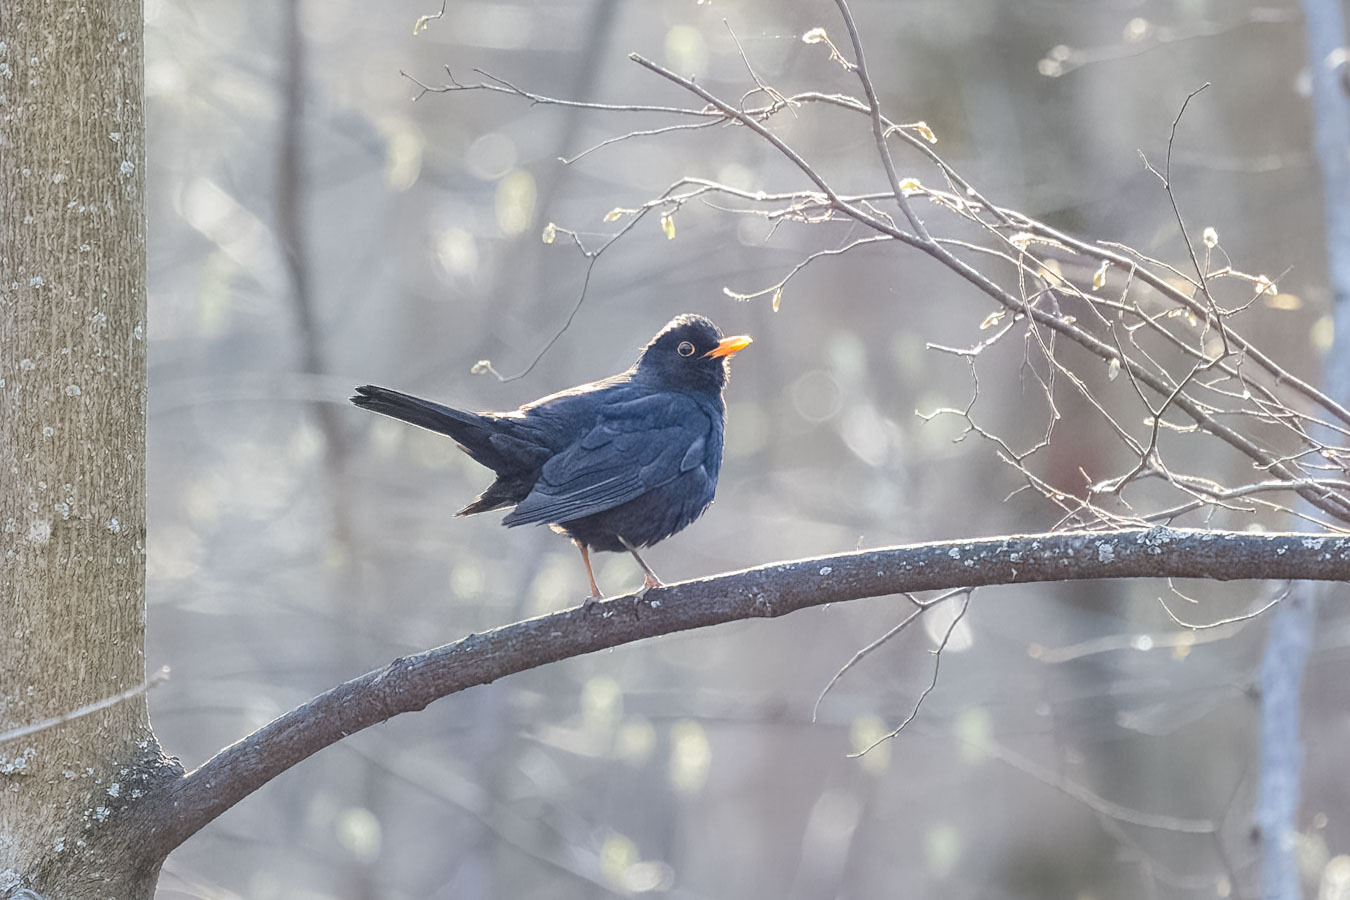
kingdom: Animalia
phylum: Chordata
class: Aves
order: Passeriformes
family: Turdidae
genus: Turdus
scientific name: Turdus merula
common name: Common blackbird
